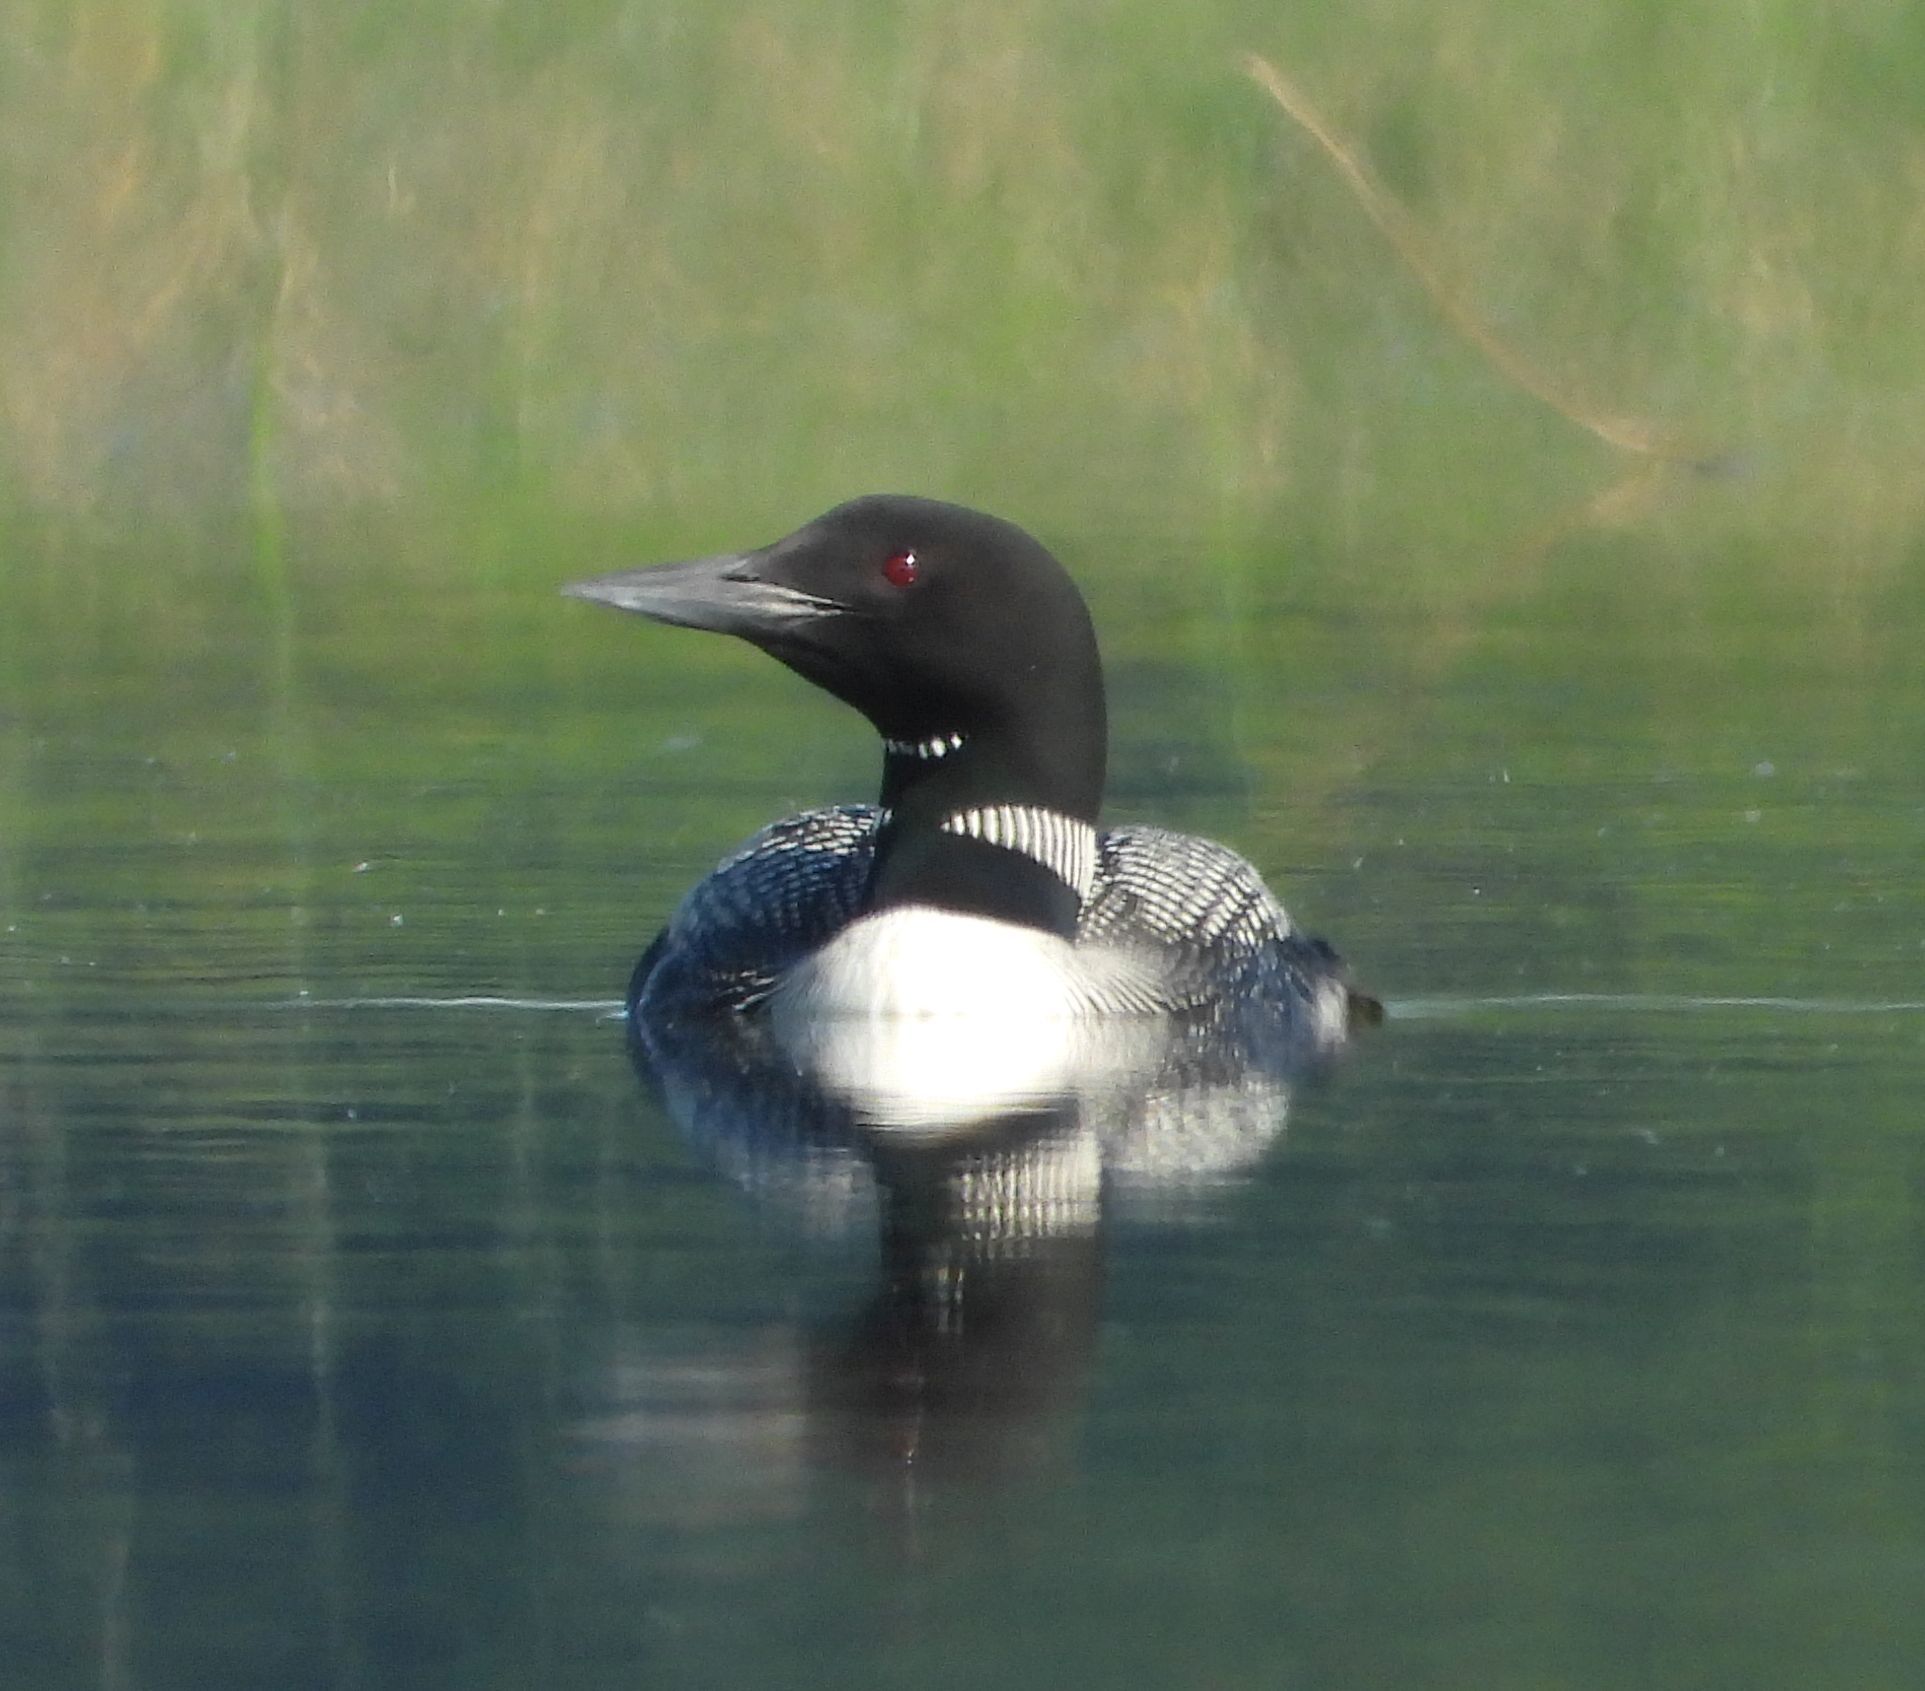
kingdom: Animalia
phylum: Chordata
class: Aves
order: Gaviiformes
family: Gaviidae
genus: Gavia
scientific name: Gavia immer
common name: Common loon
